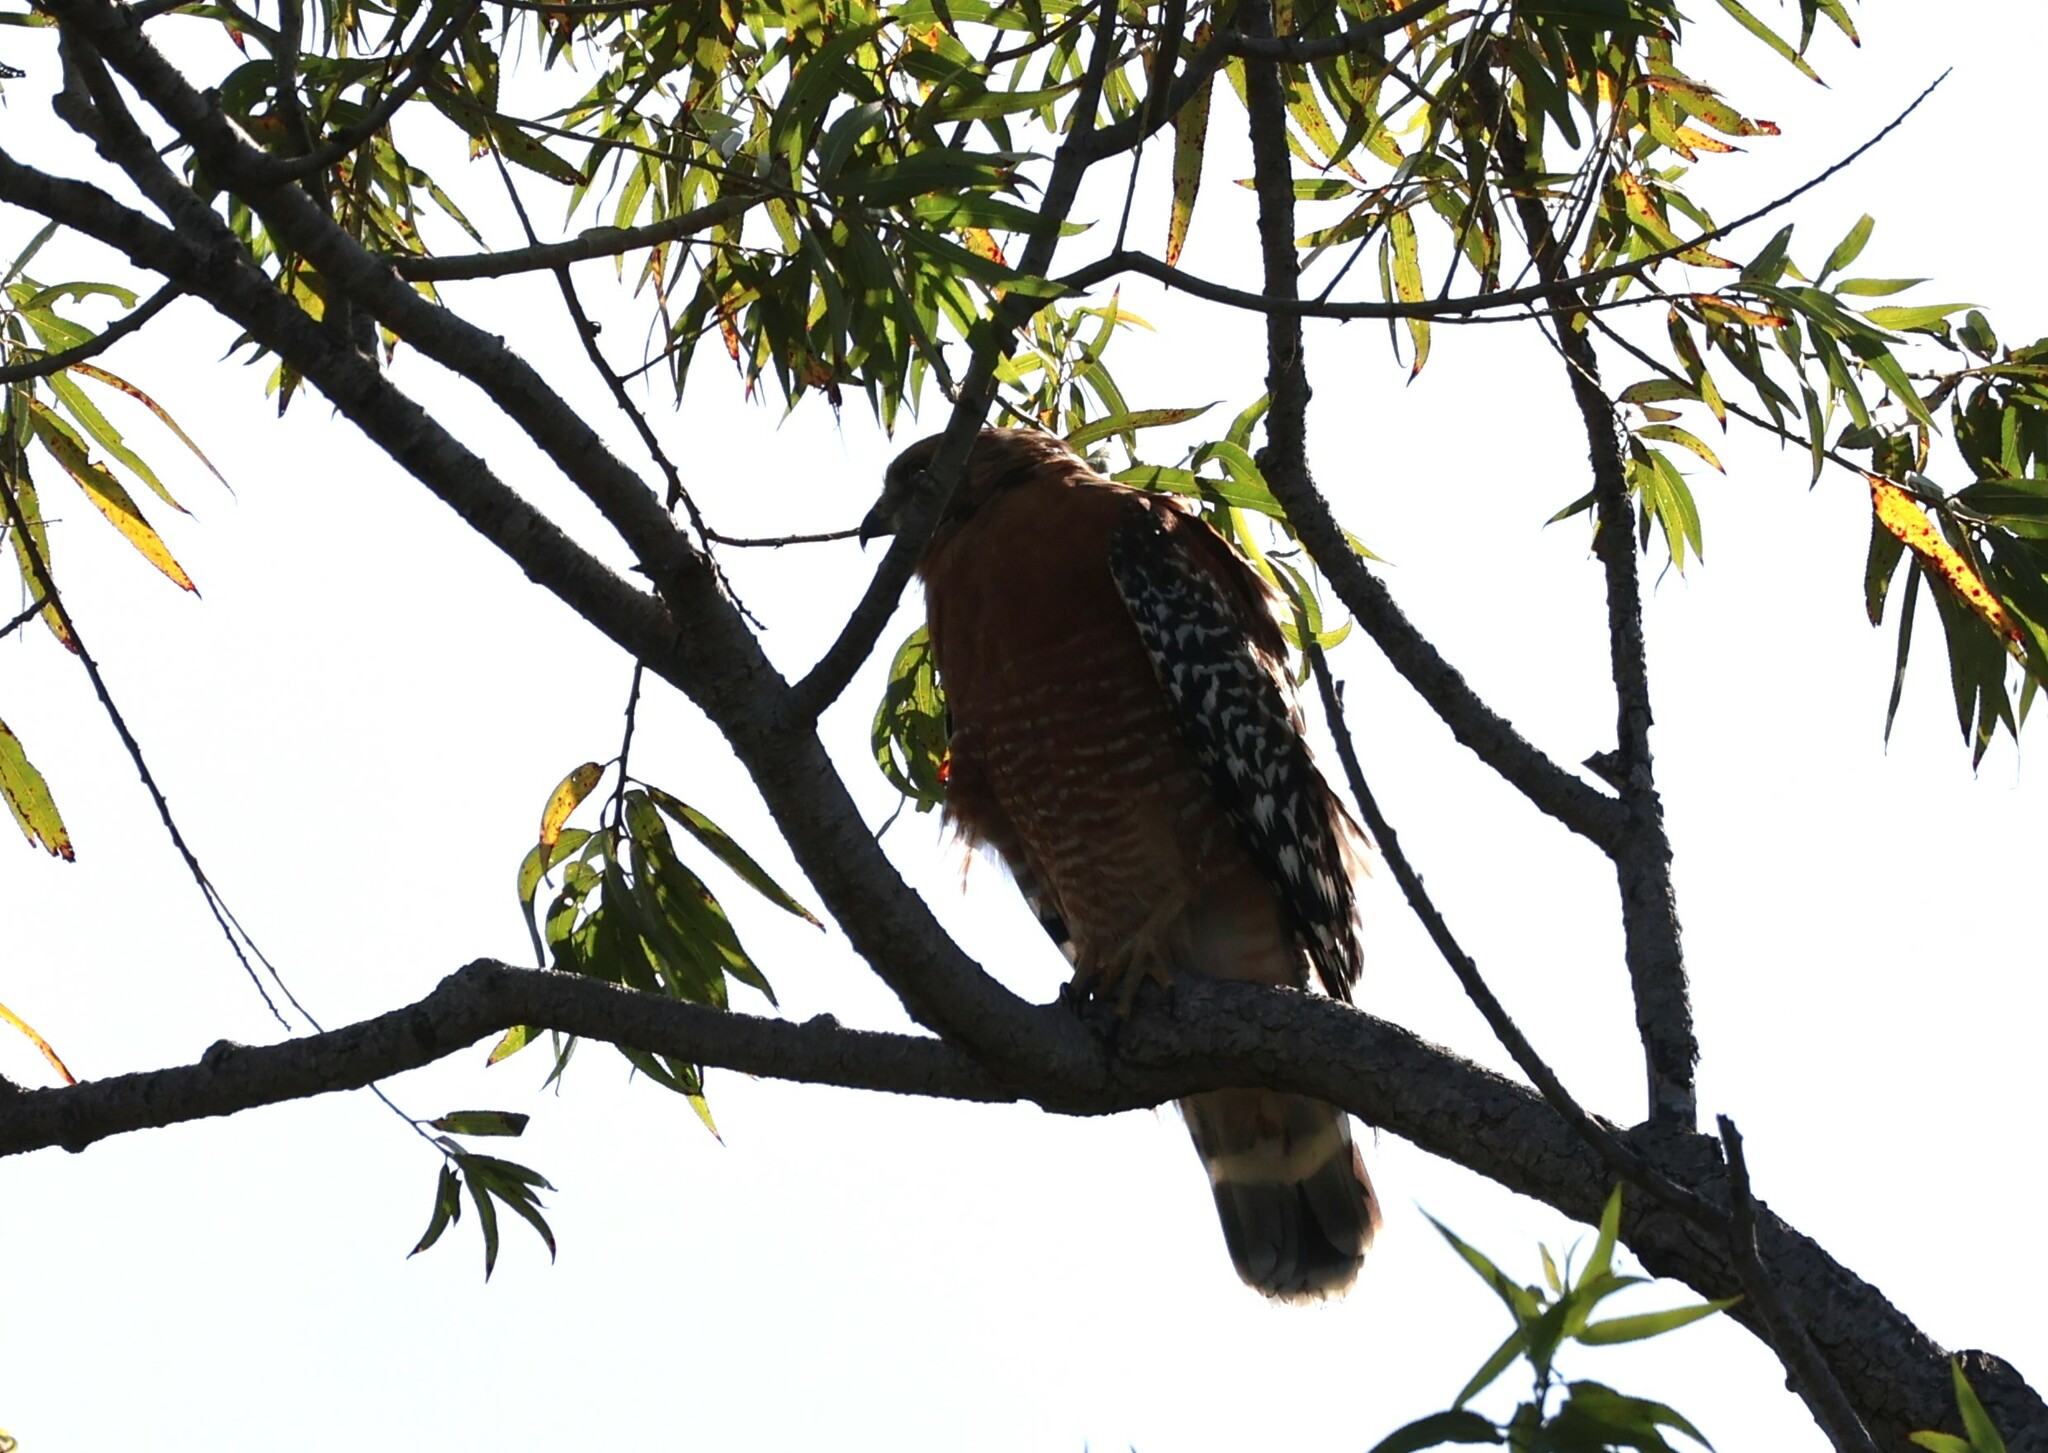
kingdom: Animalia
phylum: Chordata
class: Aves
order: Accipitriformes
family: Accipitridae
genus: Buteo
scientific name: Buteo lineatus
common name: Red-shouldered hawk
